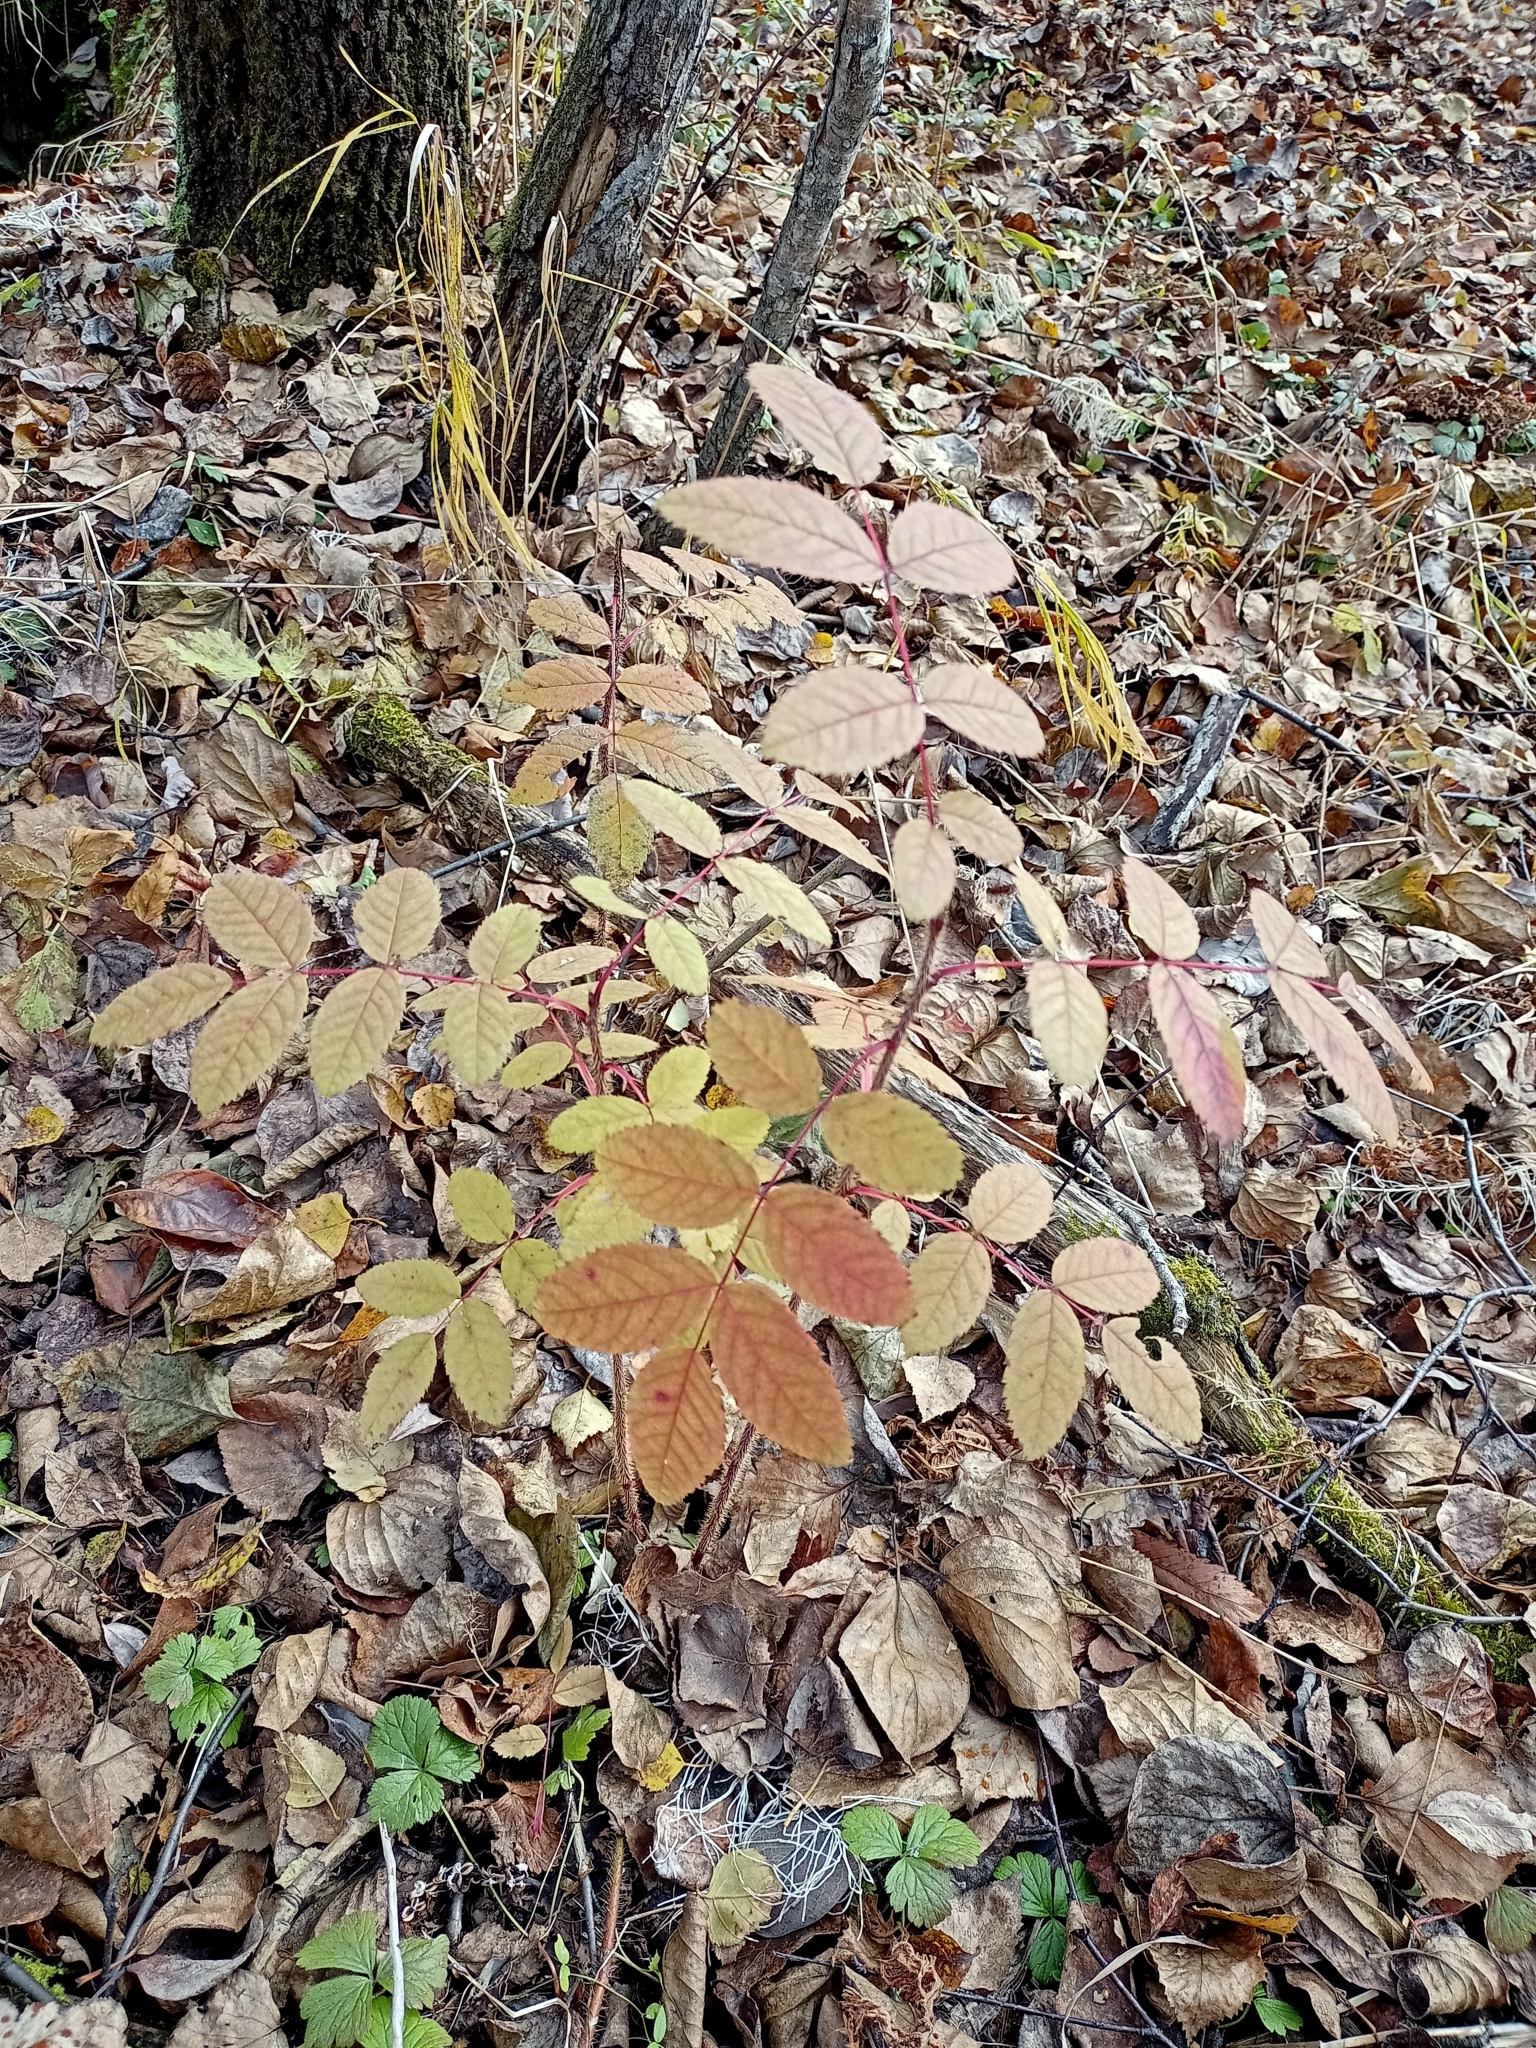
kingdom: Plantae
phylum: Tracheophyta
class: Magnoliopsida
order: Rosales
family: Rosaceae
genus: Rosa
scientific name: Rosa acicularis
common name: Prickly rose
